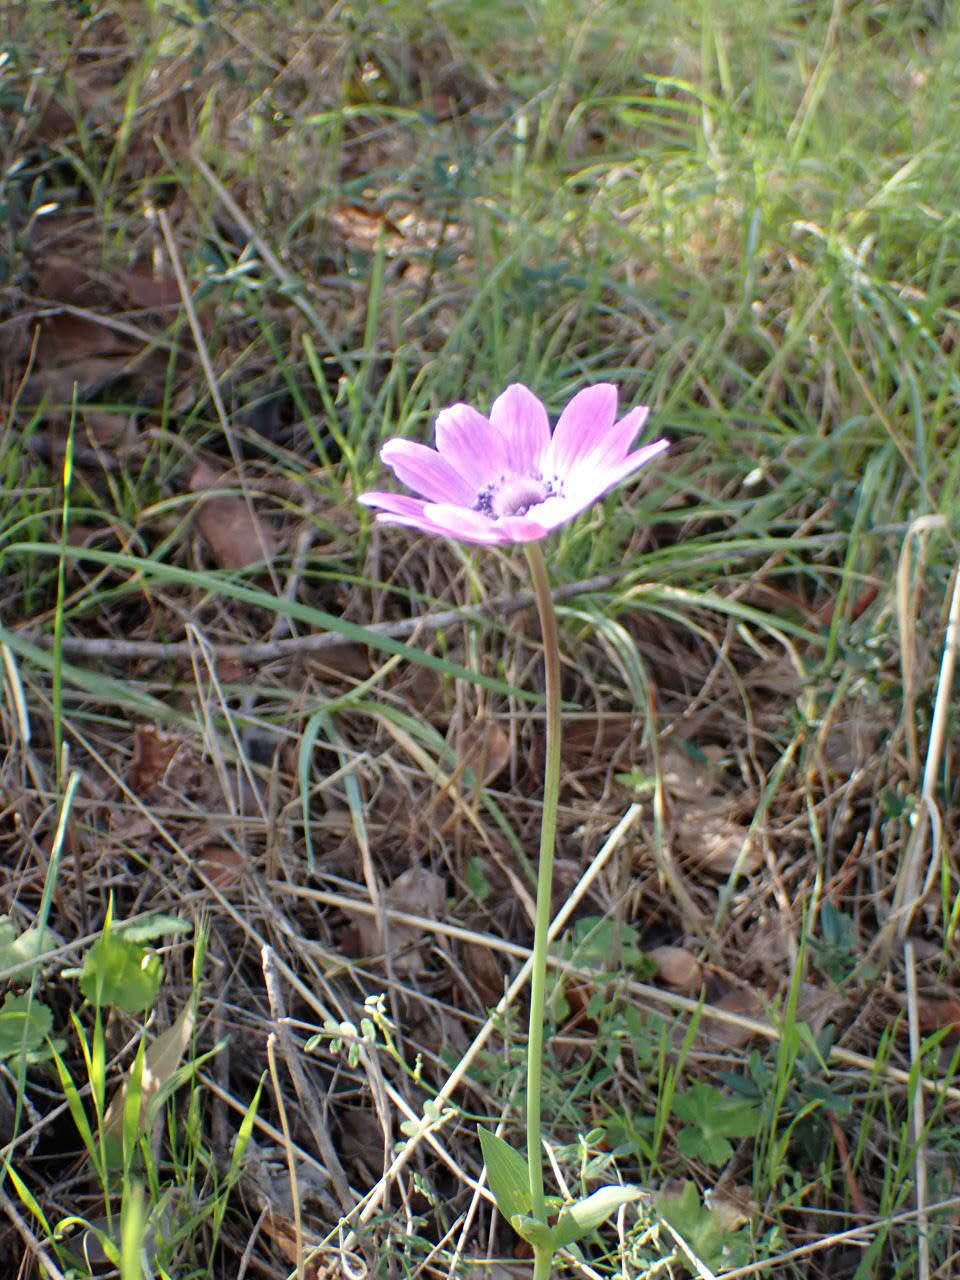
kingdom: Plantae
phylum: Tracheophyta
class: Magnoliopsida
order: Ranunculales
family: Ranunculaceae
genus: Anemone
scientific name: Anemone pavonina
